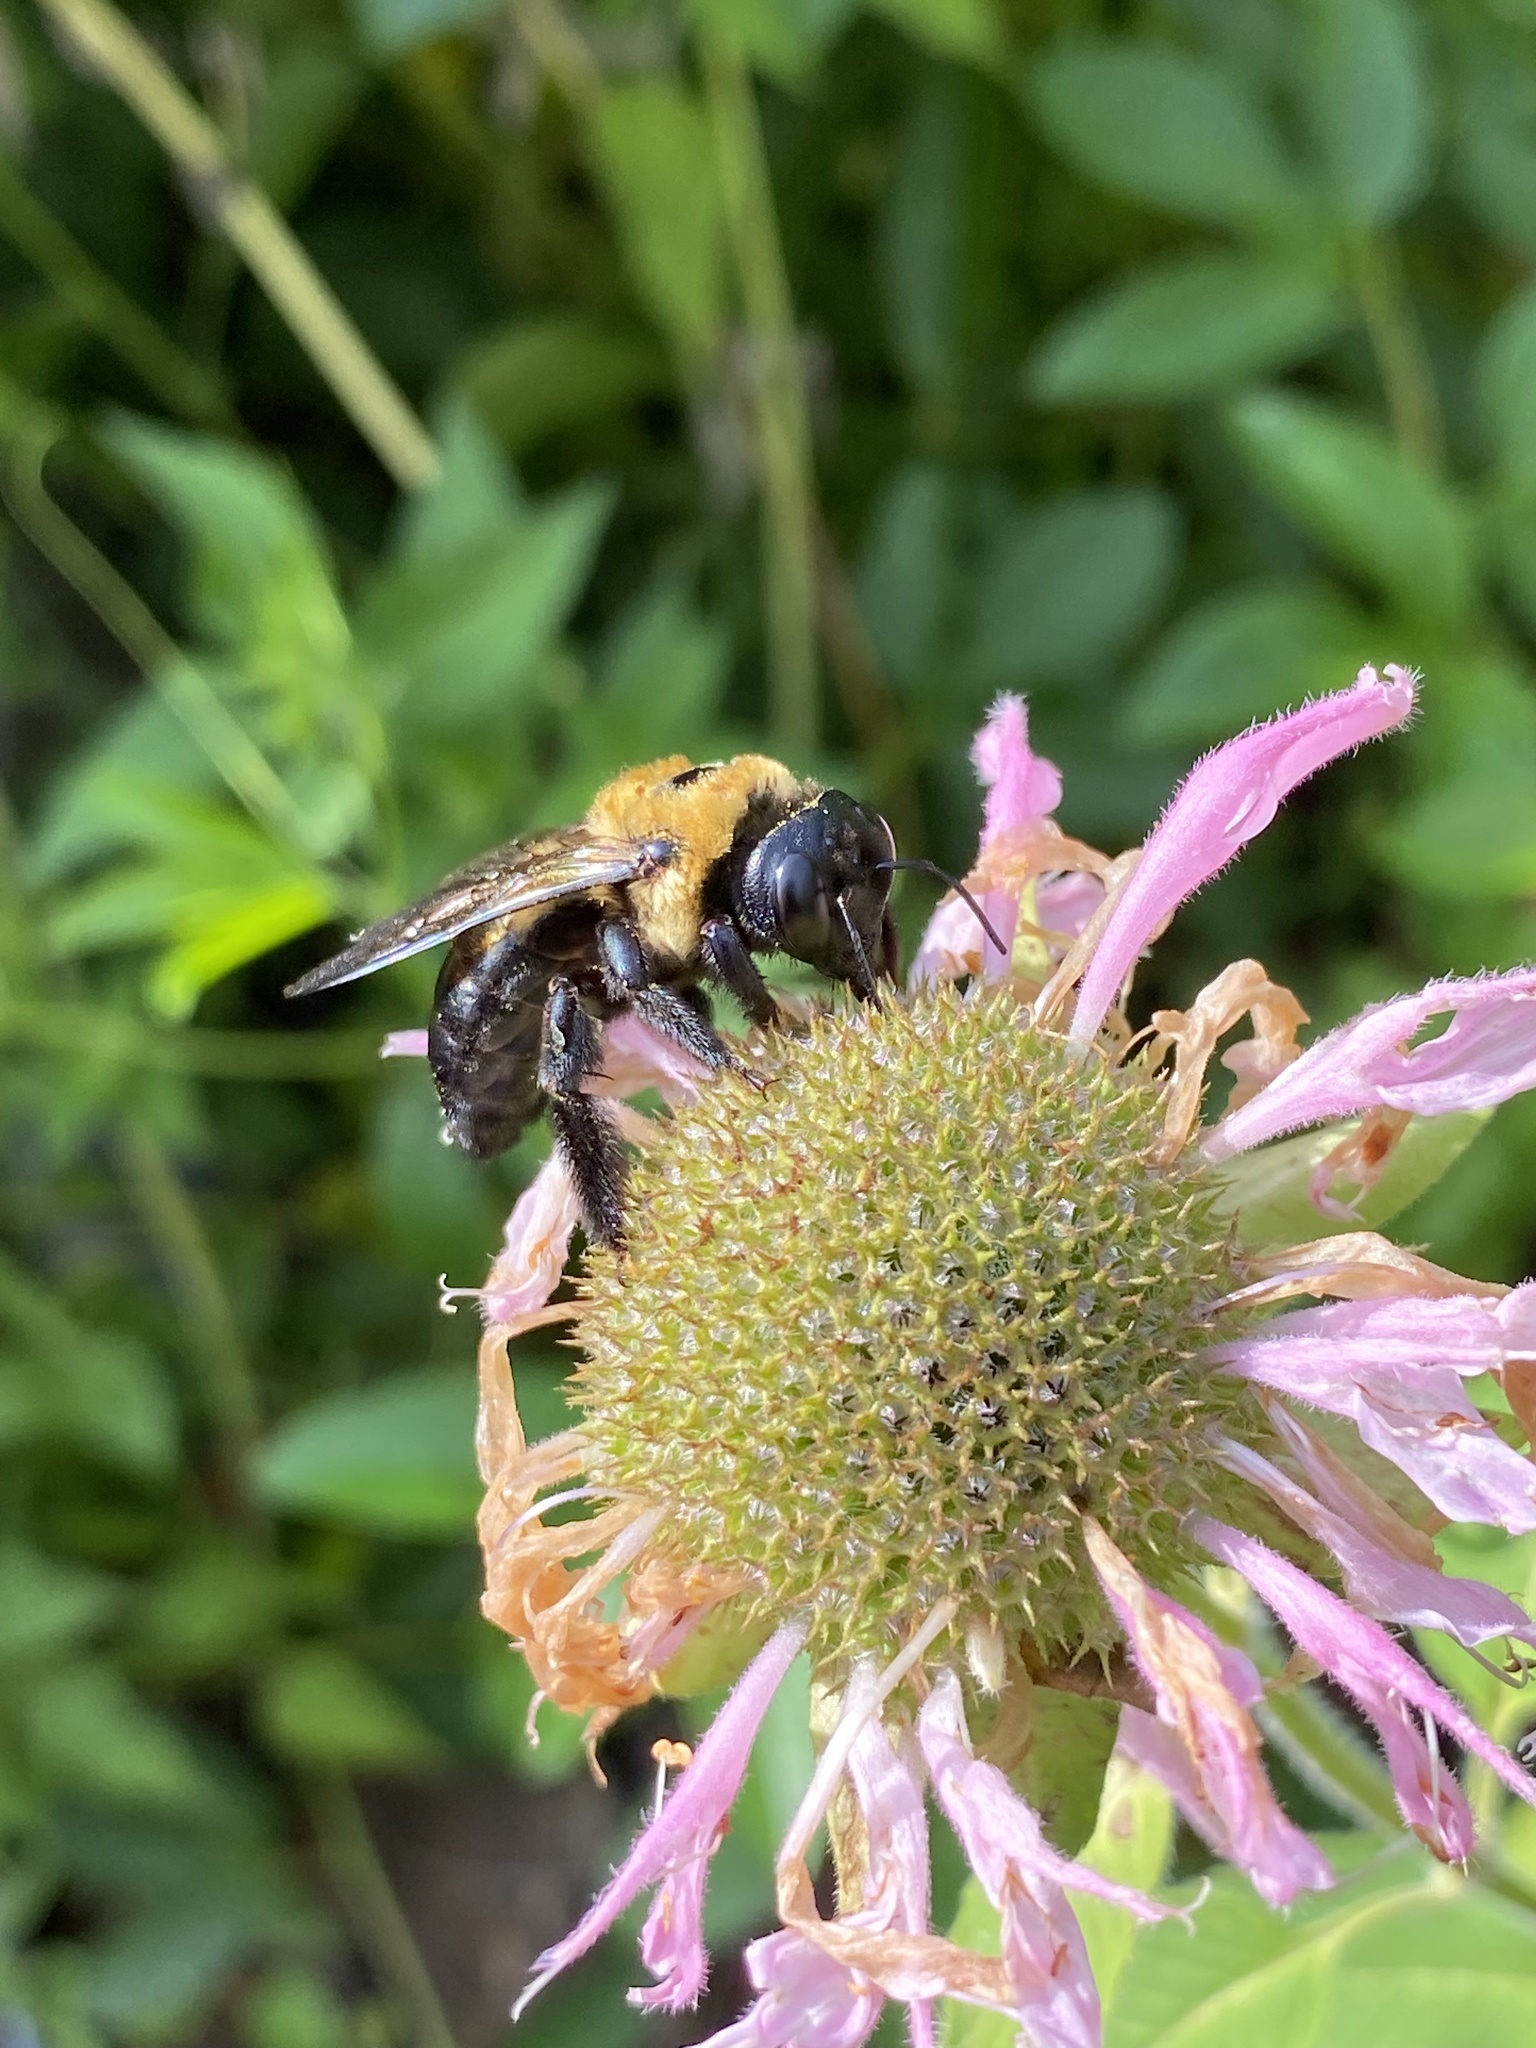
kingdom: Animalia
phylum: Arthropoda
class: Insecta
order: Hymenoptera
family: Apidae
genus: Xylocopa
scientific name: Xylocopa virginica
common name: Carpenter bee
